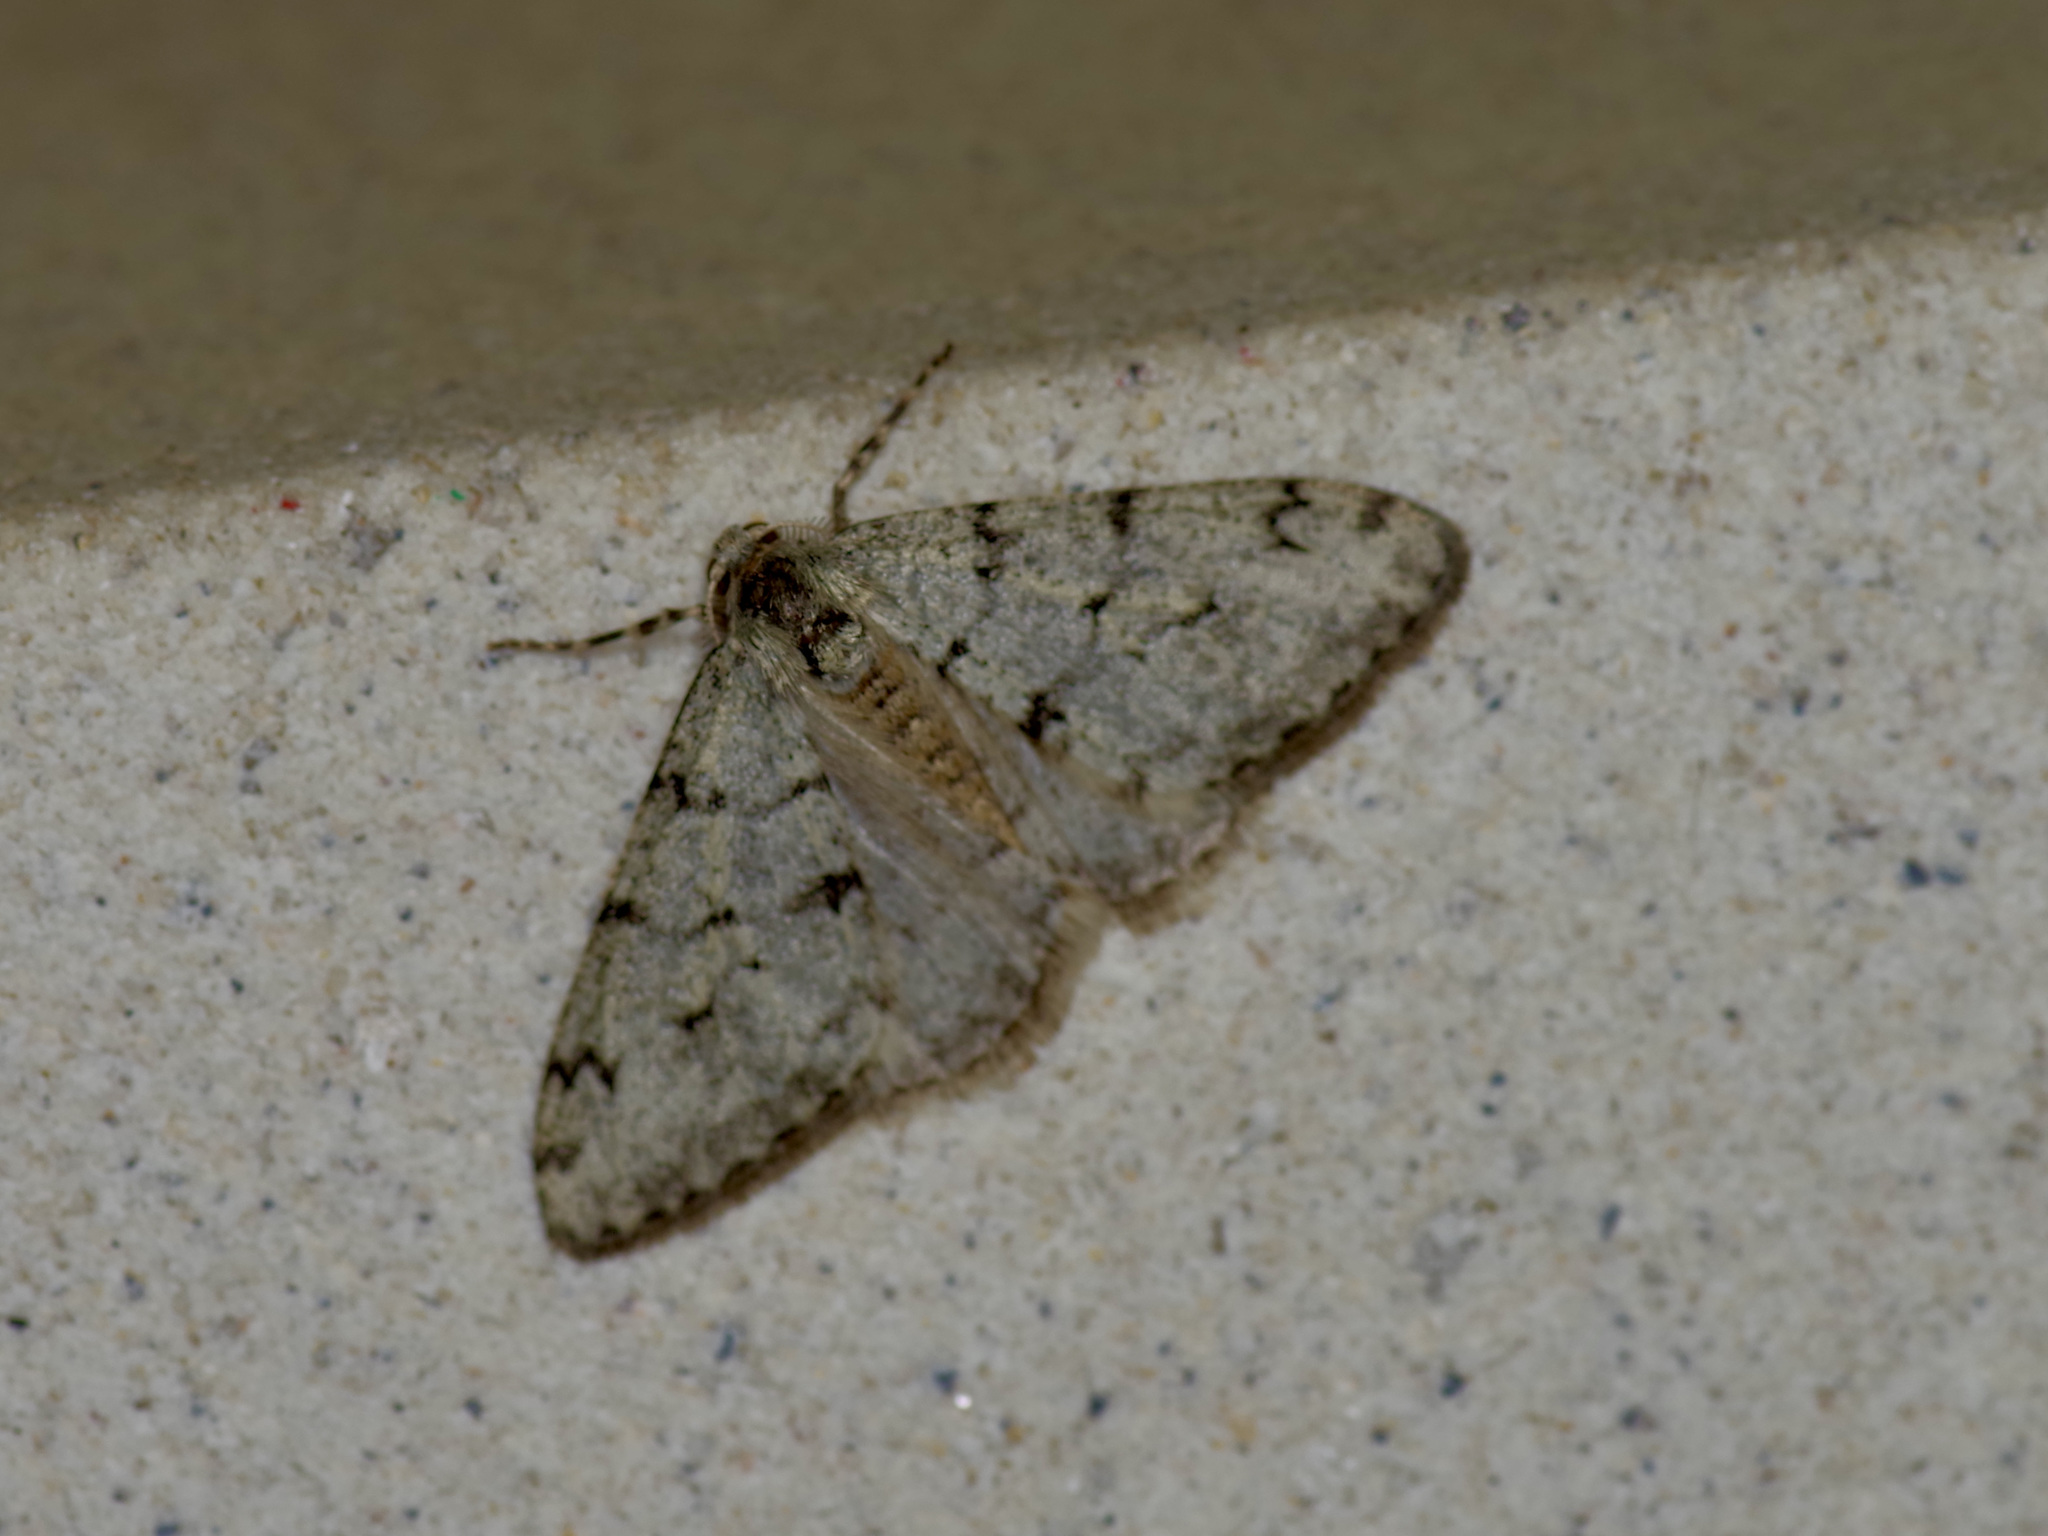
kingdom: Animalia
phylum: Arthropoda
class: Insecta
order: Lepidoptera
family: Geometridae
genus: Phigalia
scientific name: Phigalia strigataria
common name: Small phigalia
